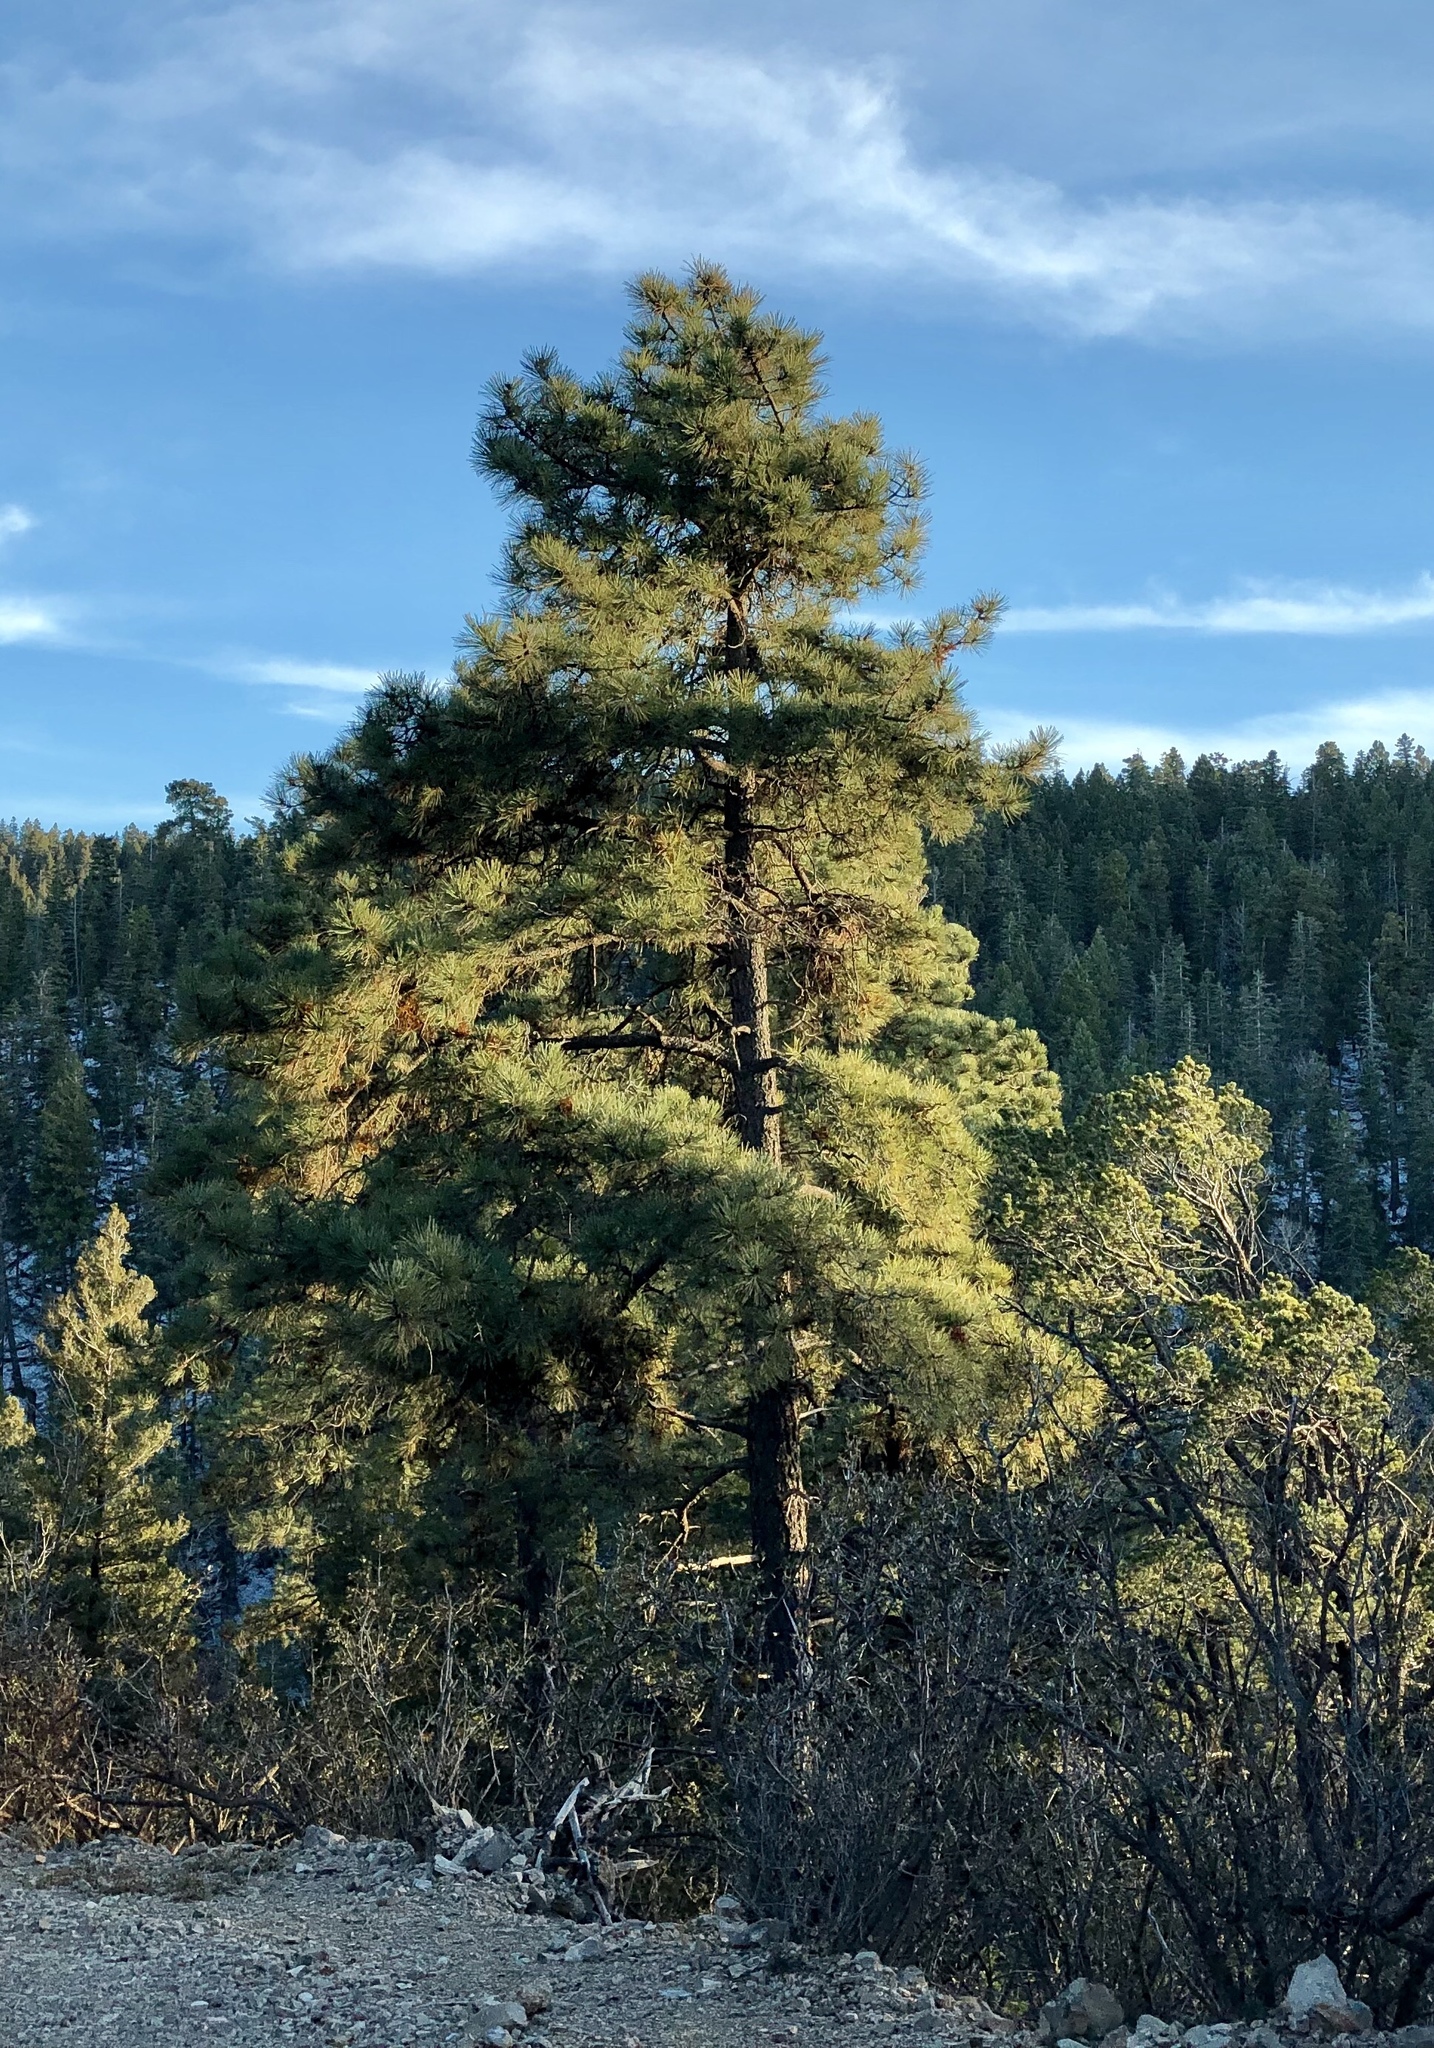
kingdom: Plantae
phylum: Tracheophyta
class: Pinopsida
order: Pinales
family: Pinaceae
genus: Pinus
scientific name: Pinus ponderosa
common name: Western yellow-pine
